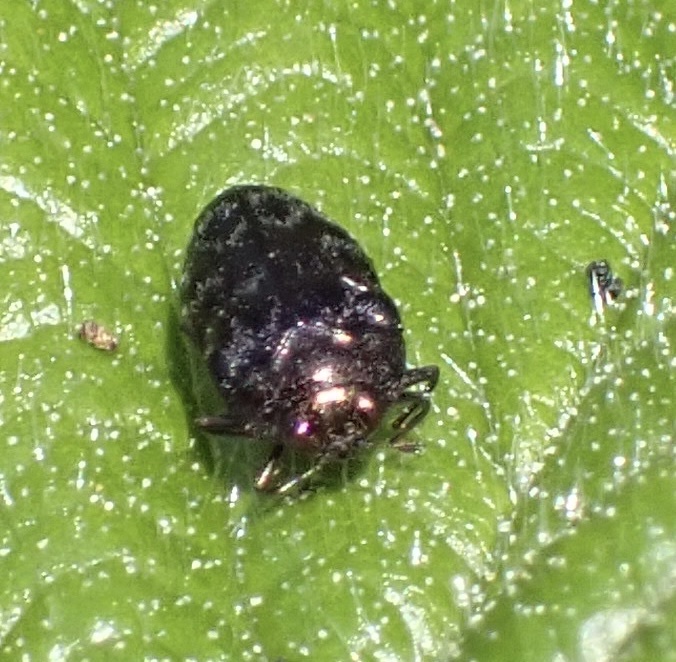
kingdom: Animalia
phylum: Arthropoda
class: Insecta
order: Coleoptera
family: Buprestidae
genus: Trachys
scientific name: Trachys minutus
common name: Metallic wood-boring beetle
